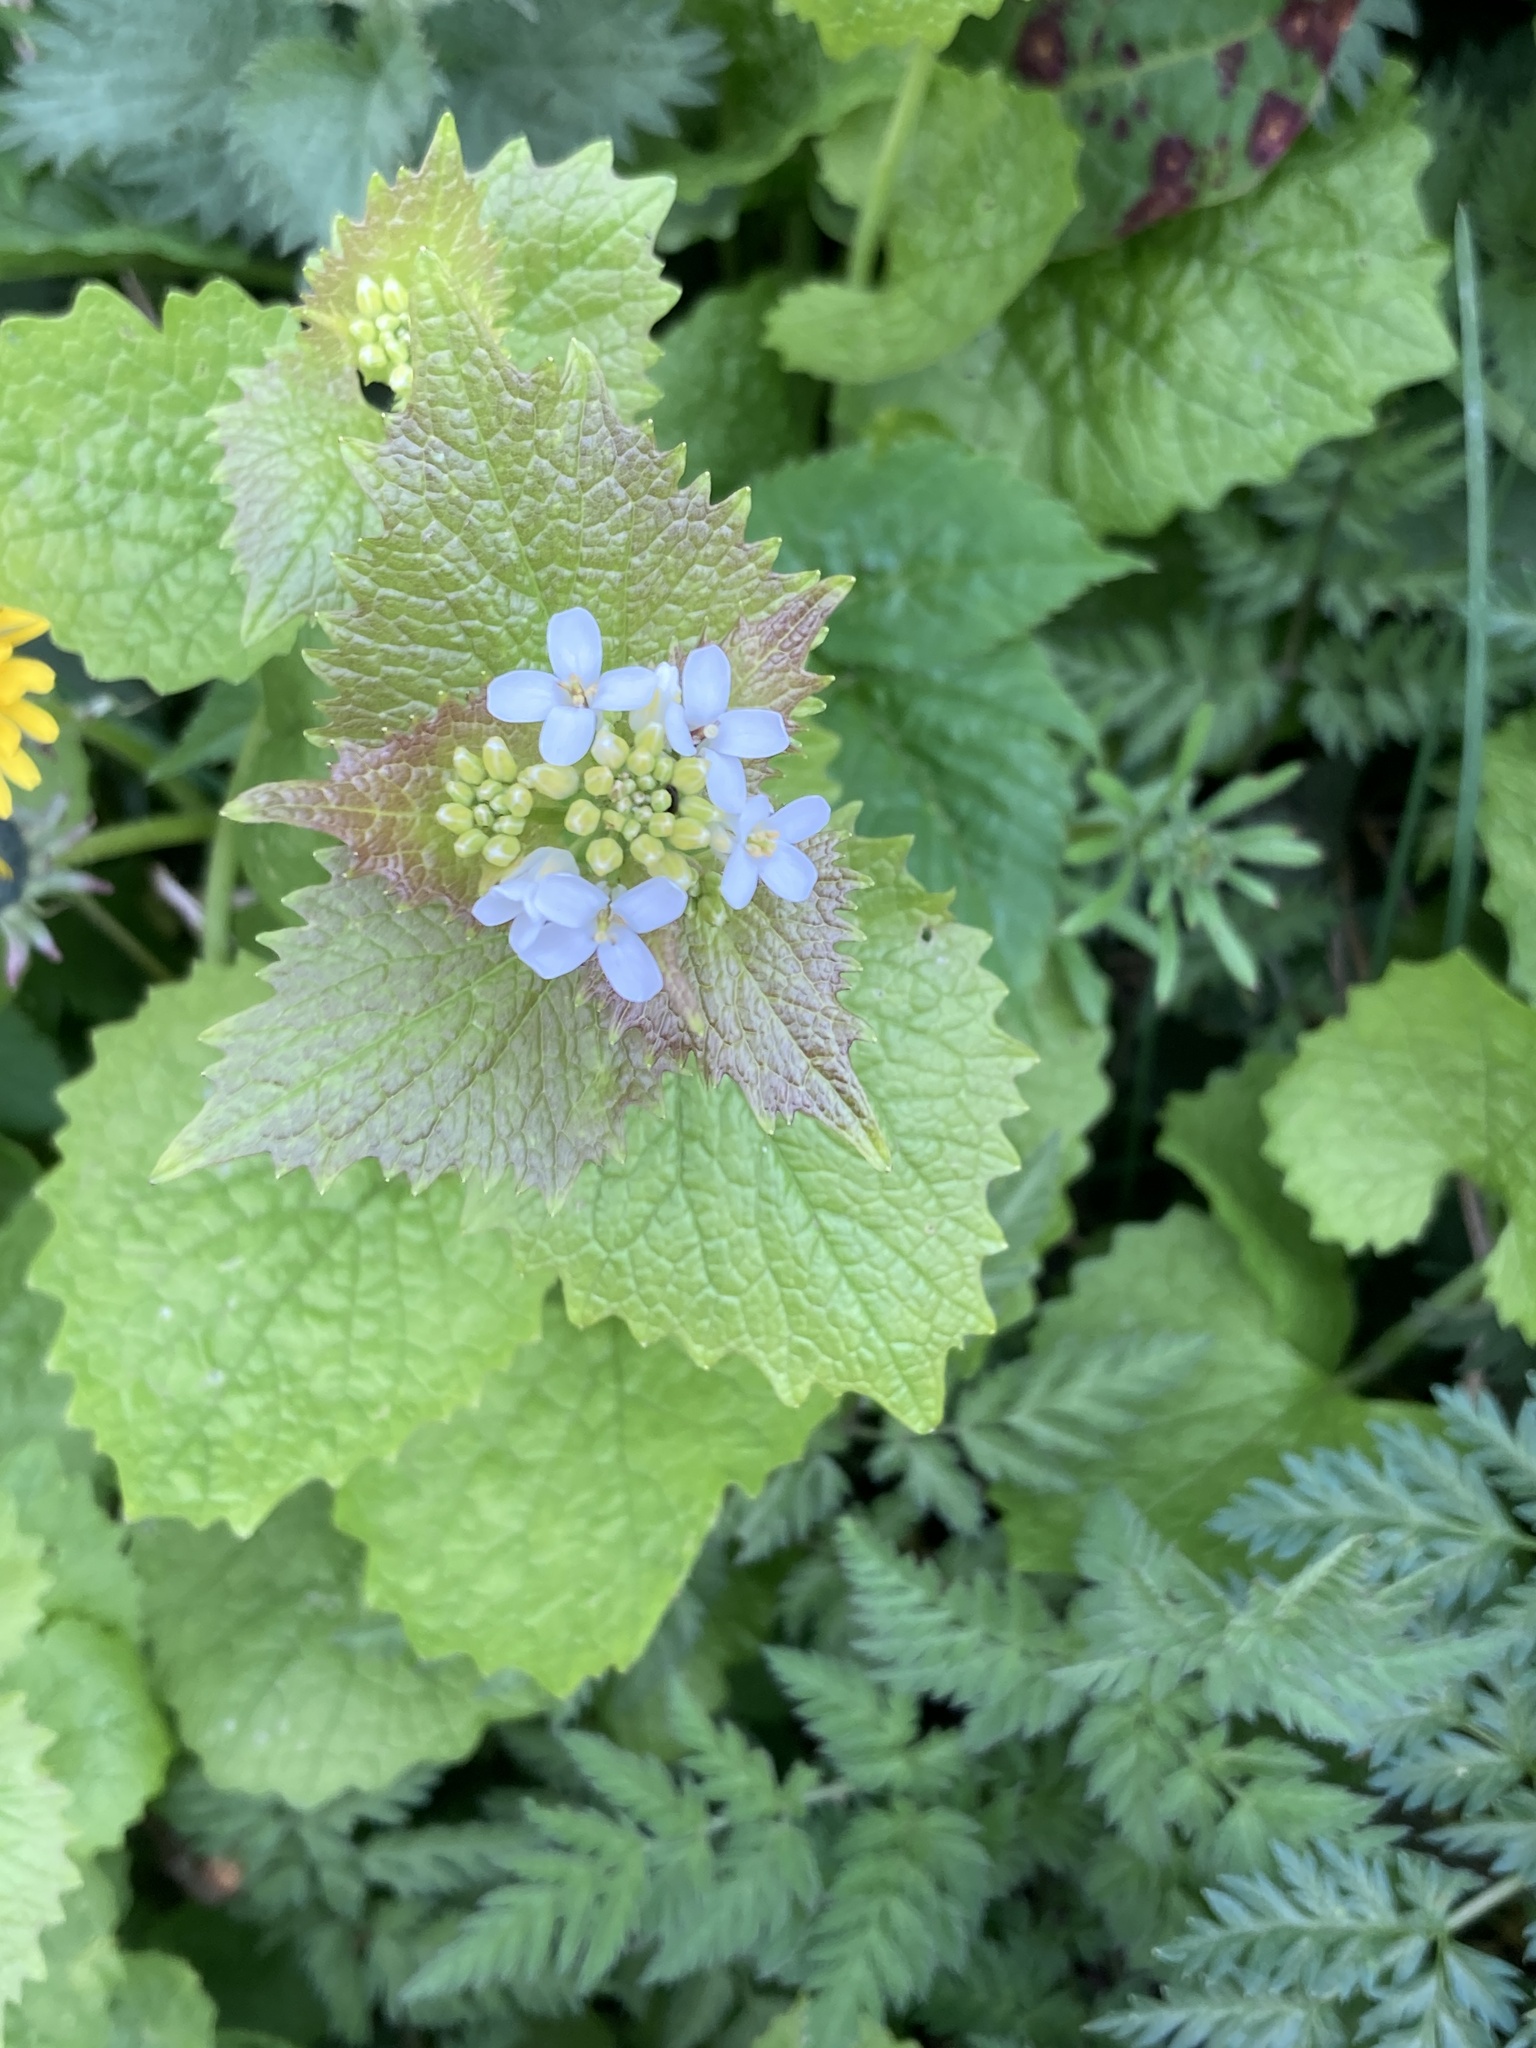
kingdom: Plantae
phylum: Tracheophyta
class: Magnoliopsida
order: Brassicales
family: Brassicaceae
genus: Alliaria
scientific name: Alliaria petiolata
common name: Garlic mustard
